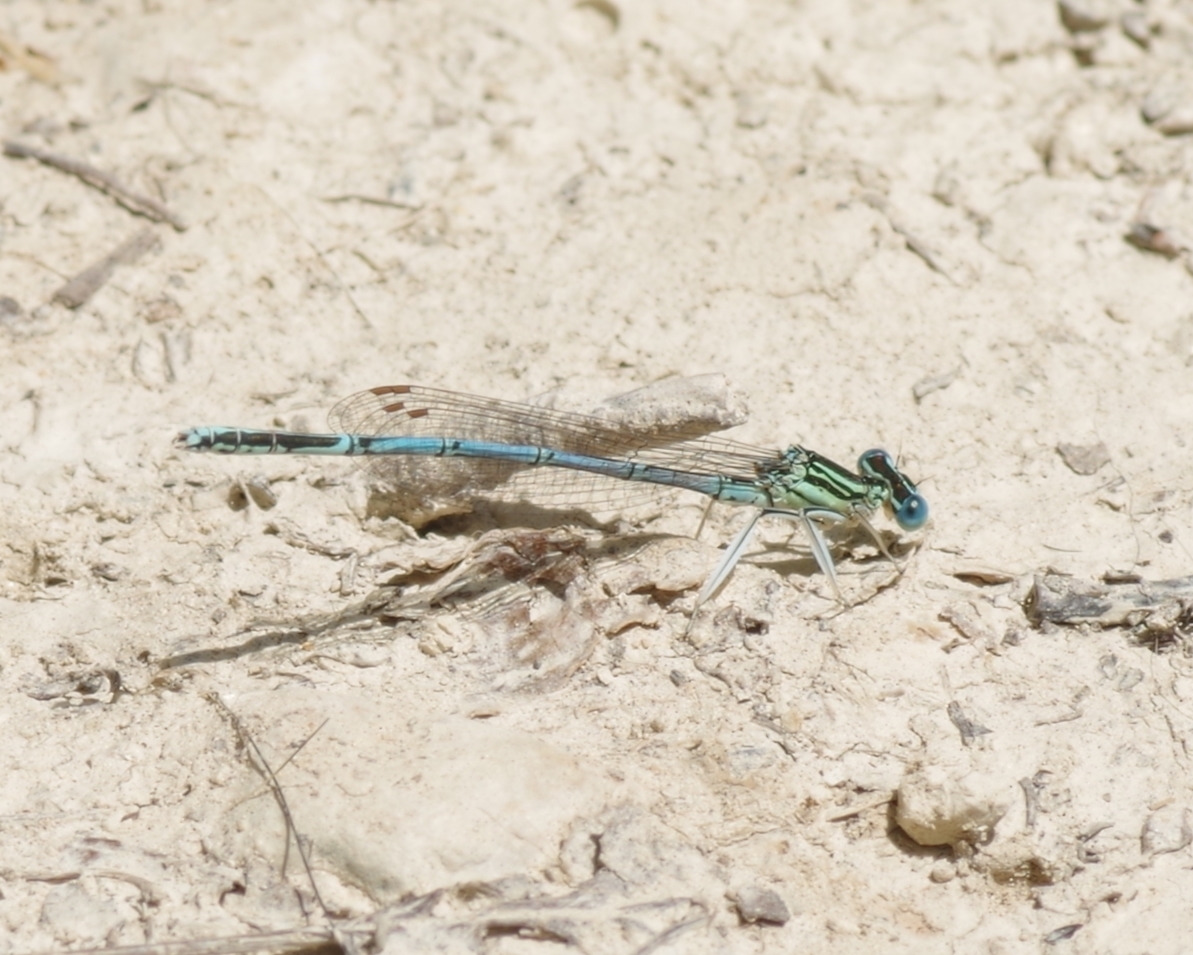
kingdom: Animalia
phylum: Arthropoda
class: Insecta
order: Odonata
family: Platycnemididae
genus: Platycnemis
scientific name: Platycnemis pennipes
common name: White-legged damselfly
